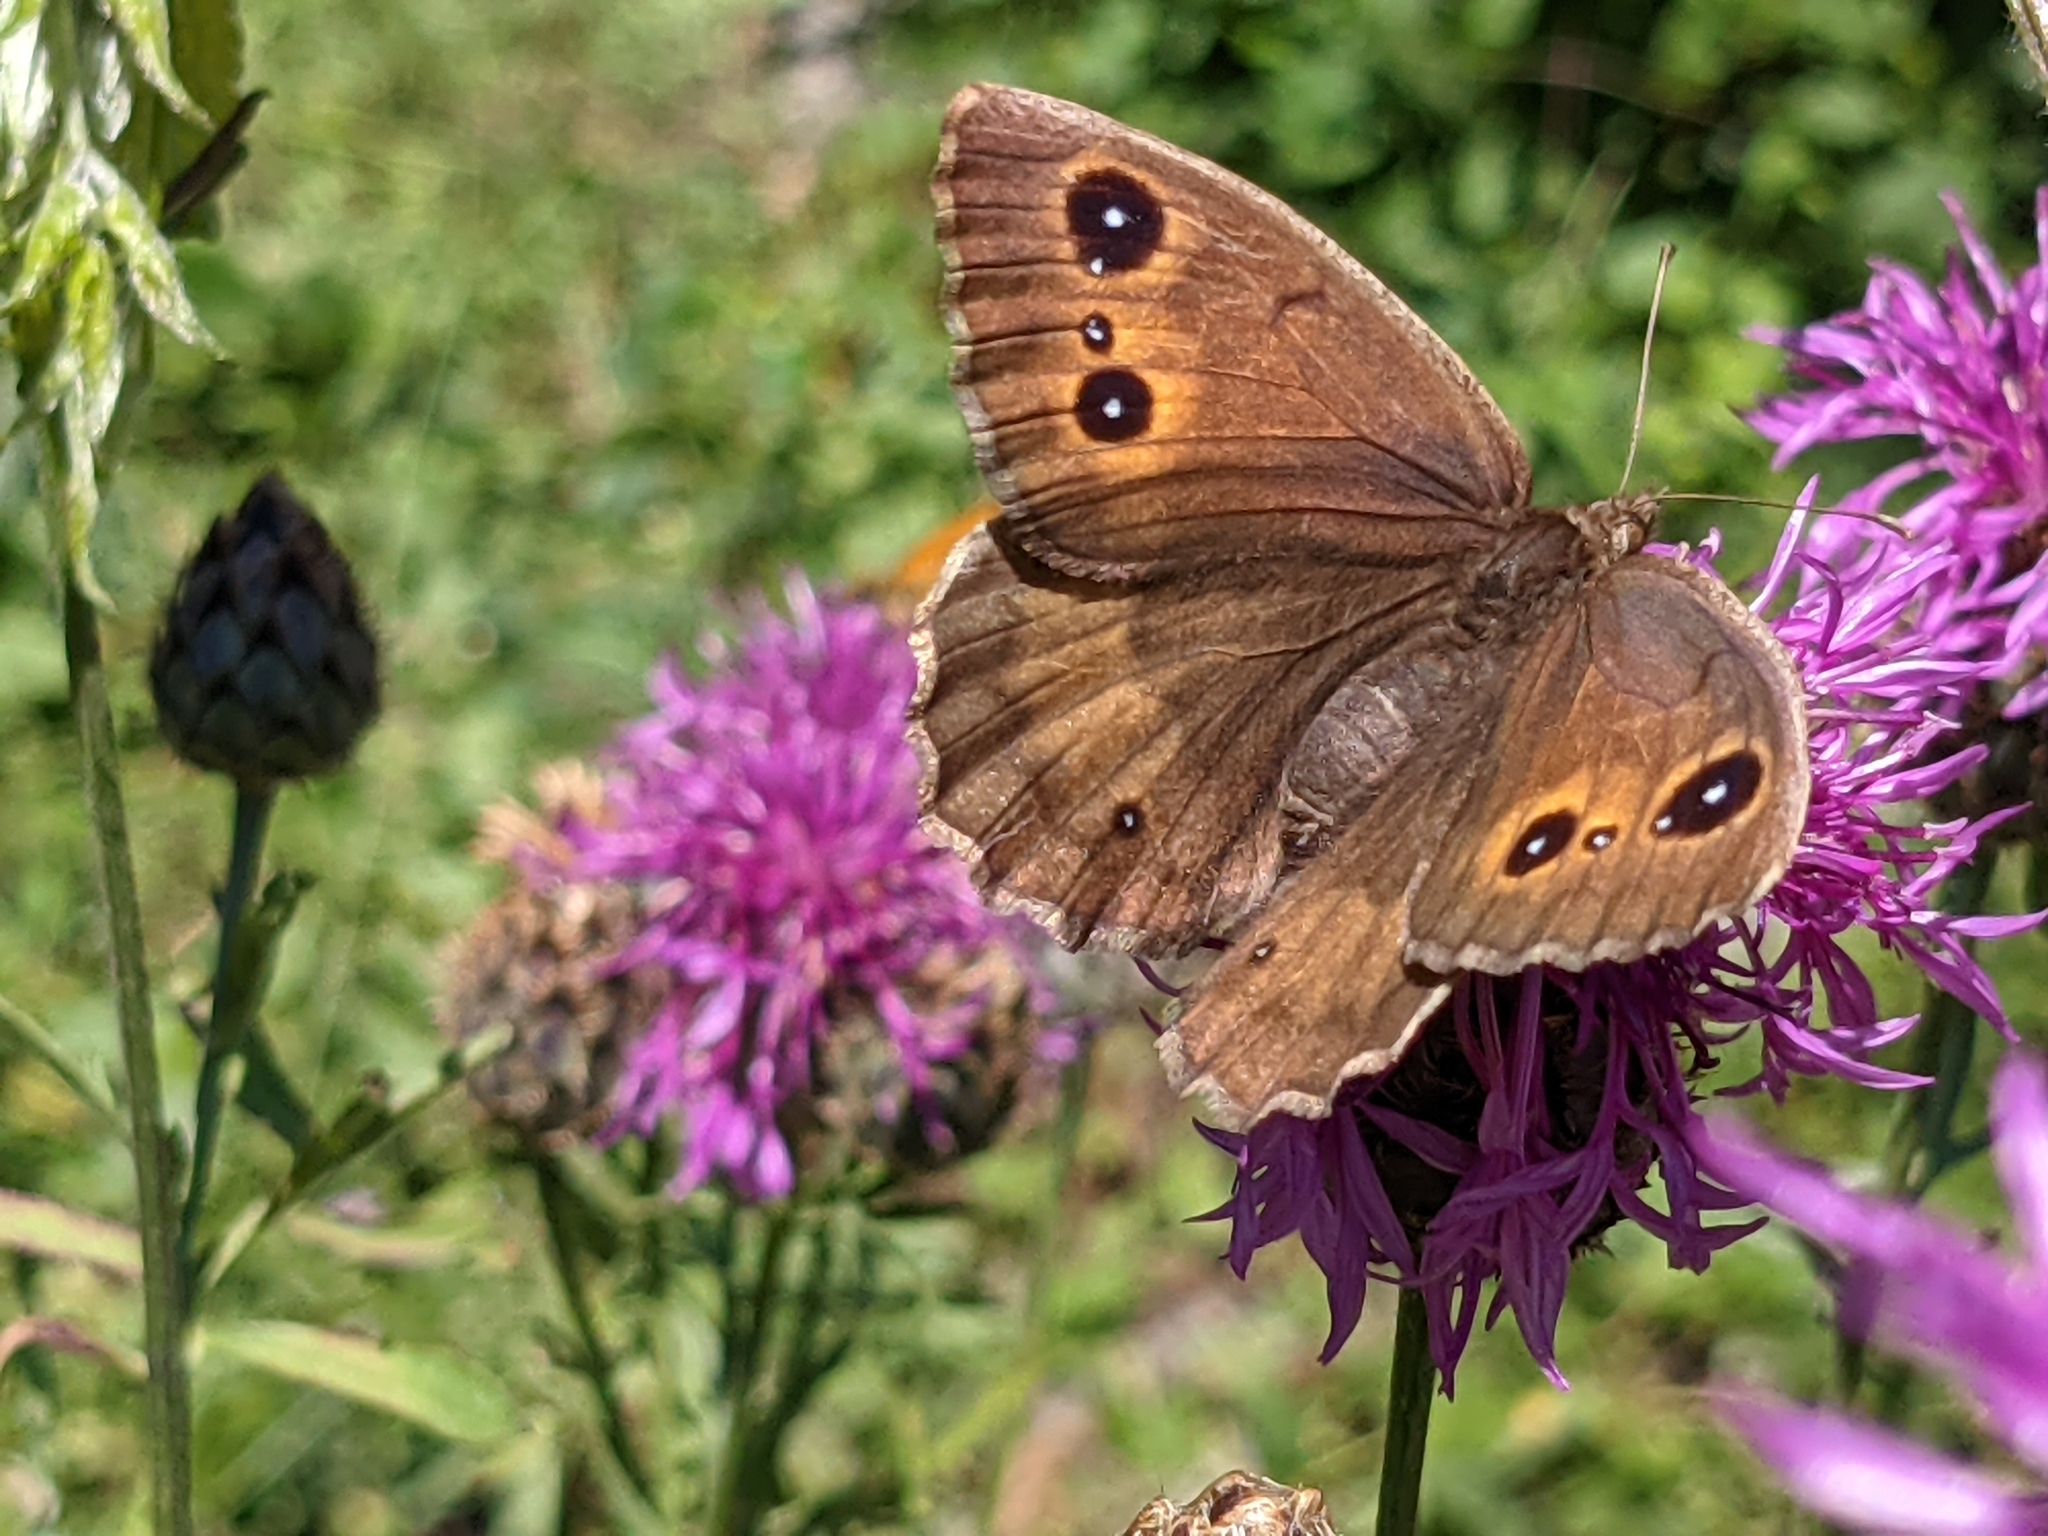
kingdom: Animalia
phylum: Arthropoda
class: Insecta
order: Lepidoptera
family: Nymphalidae
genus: Satyrus
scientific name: Satyrus ferula
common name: Great sooty satyr
